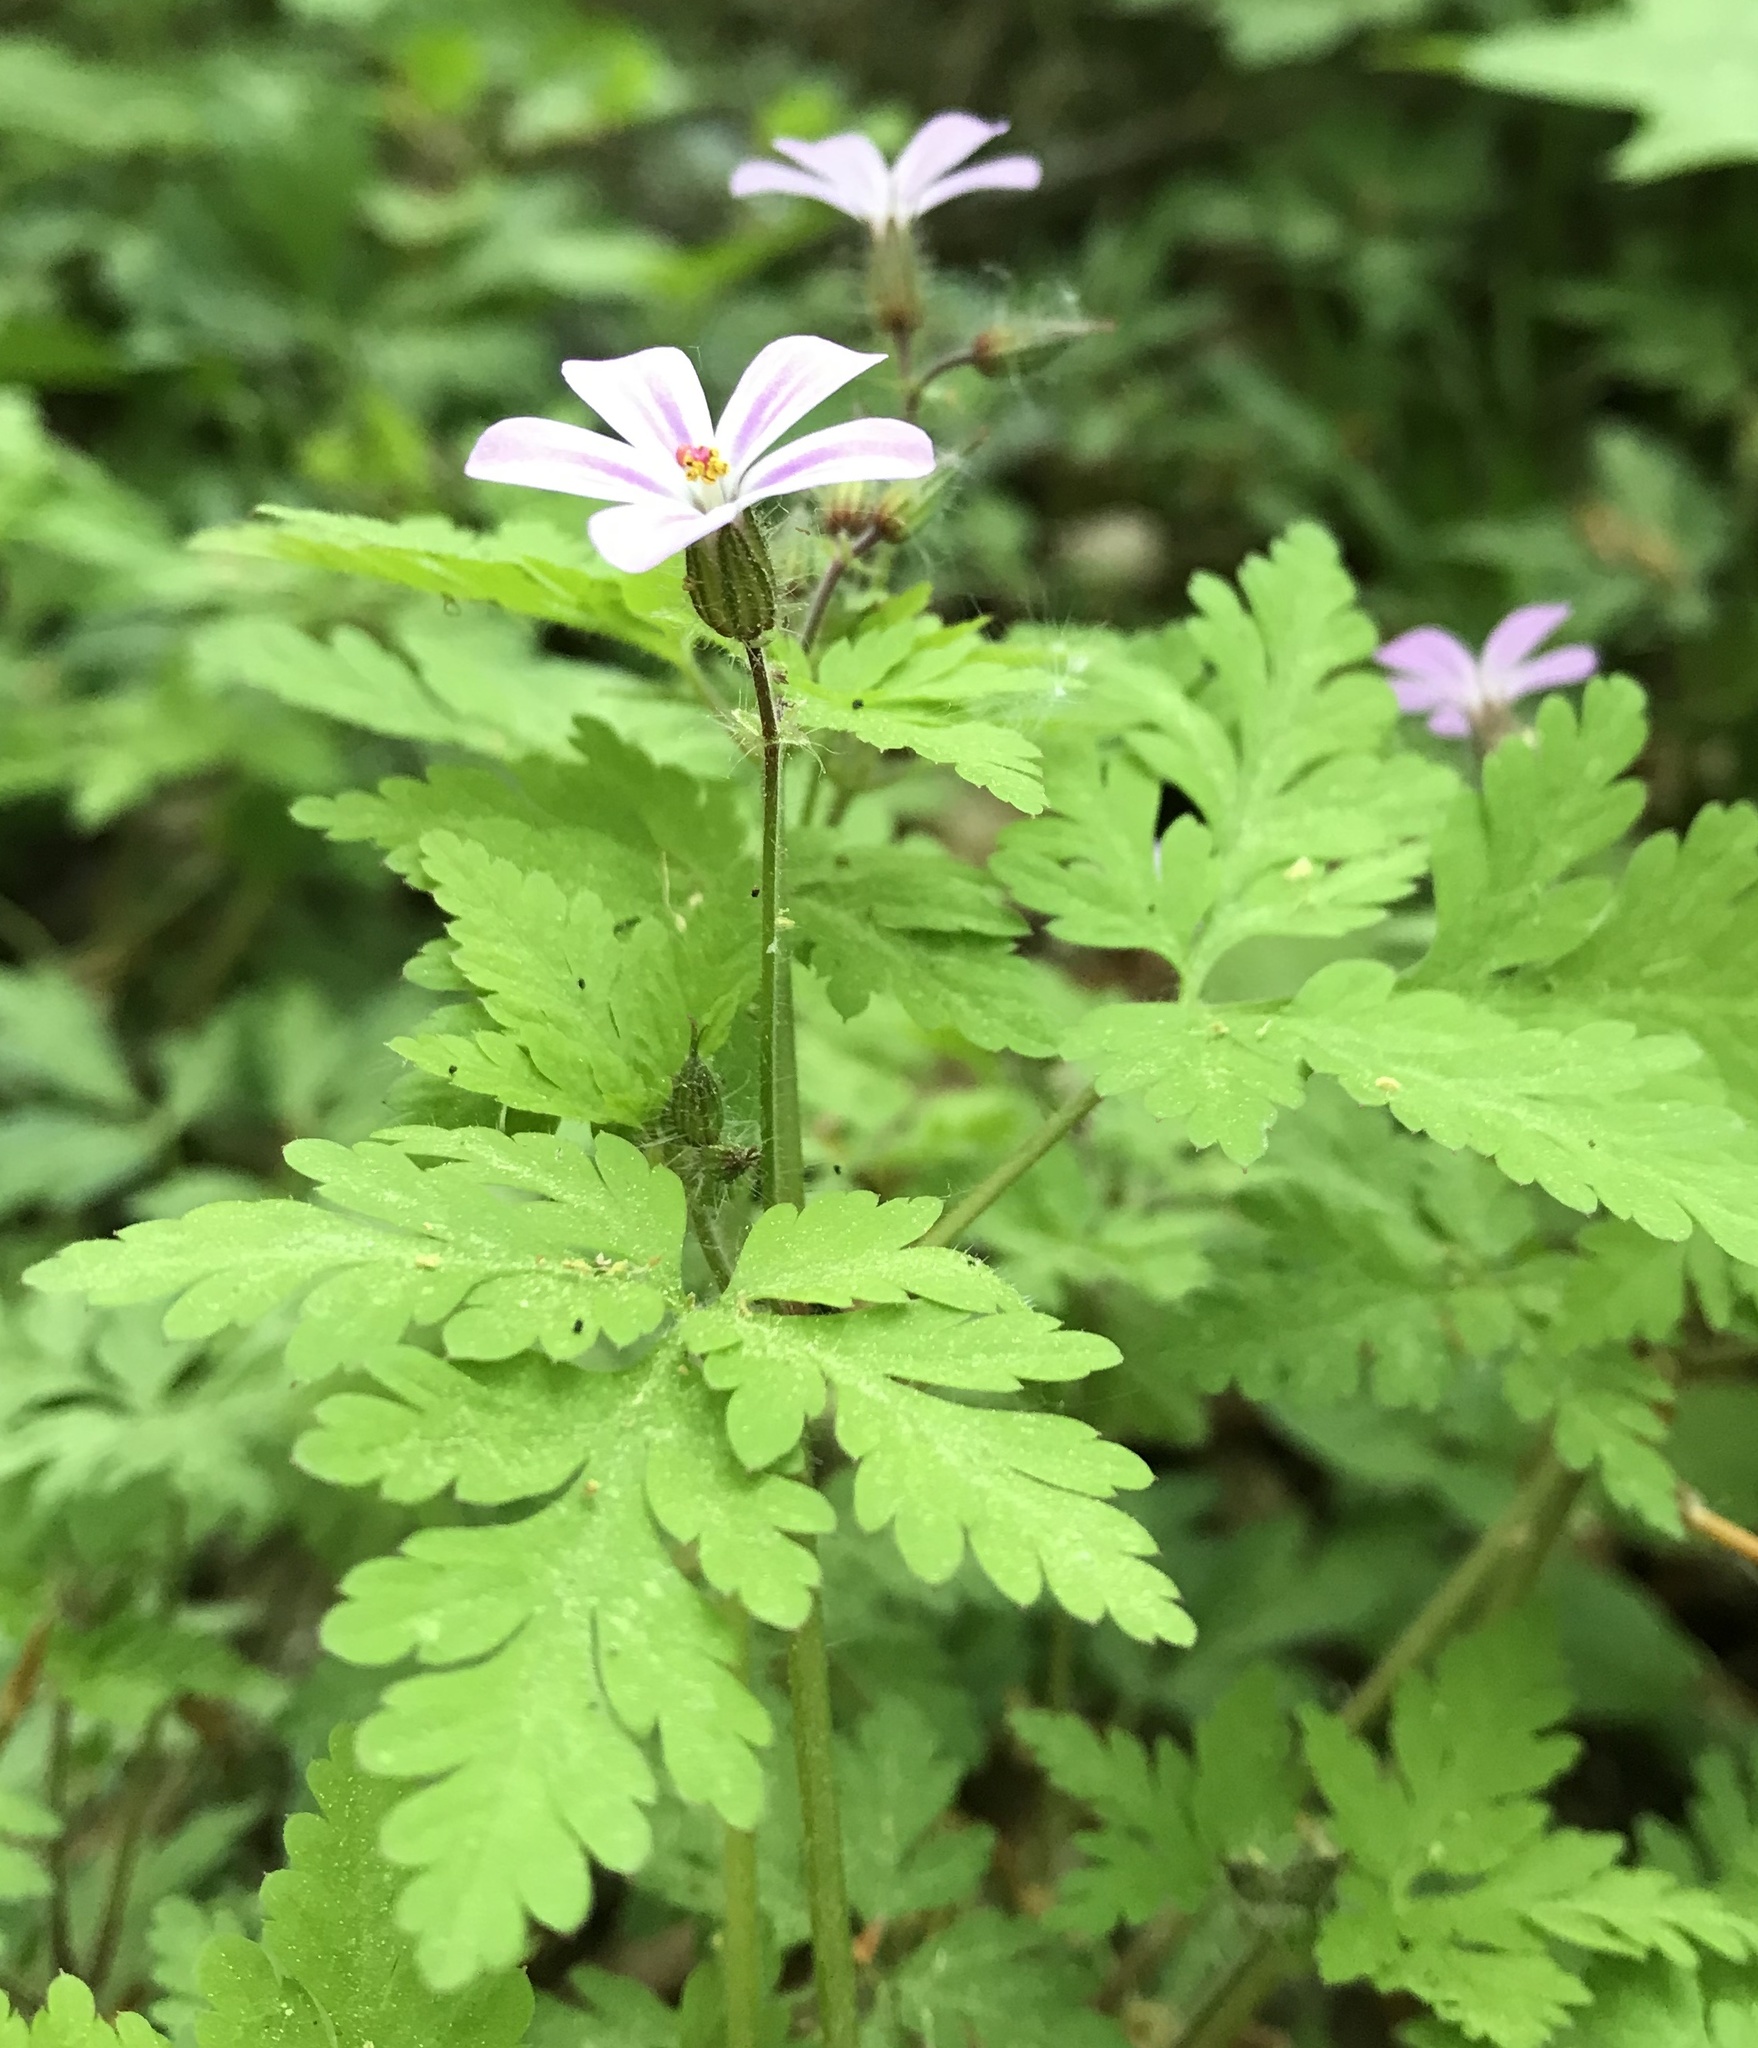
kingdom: Plantae
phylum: Tracheophyta
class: Magnoliopsida
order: Geraniales
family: Geraniaceae
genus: Geranium
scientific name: Geranium robertianum
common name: Herb-robert
